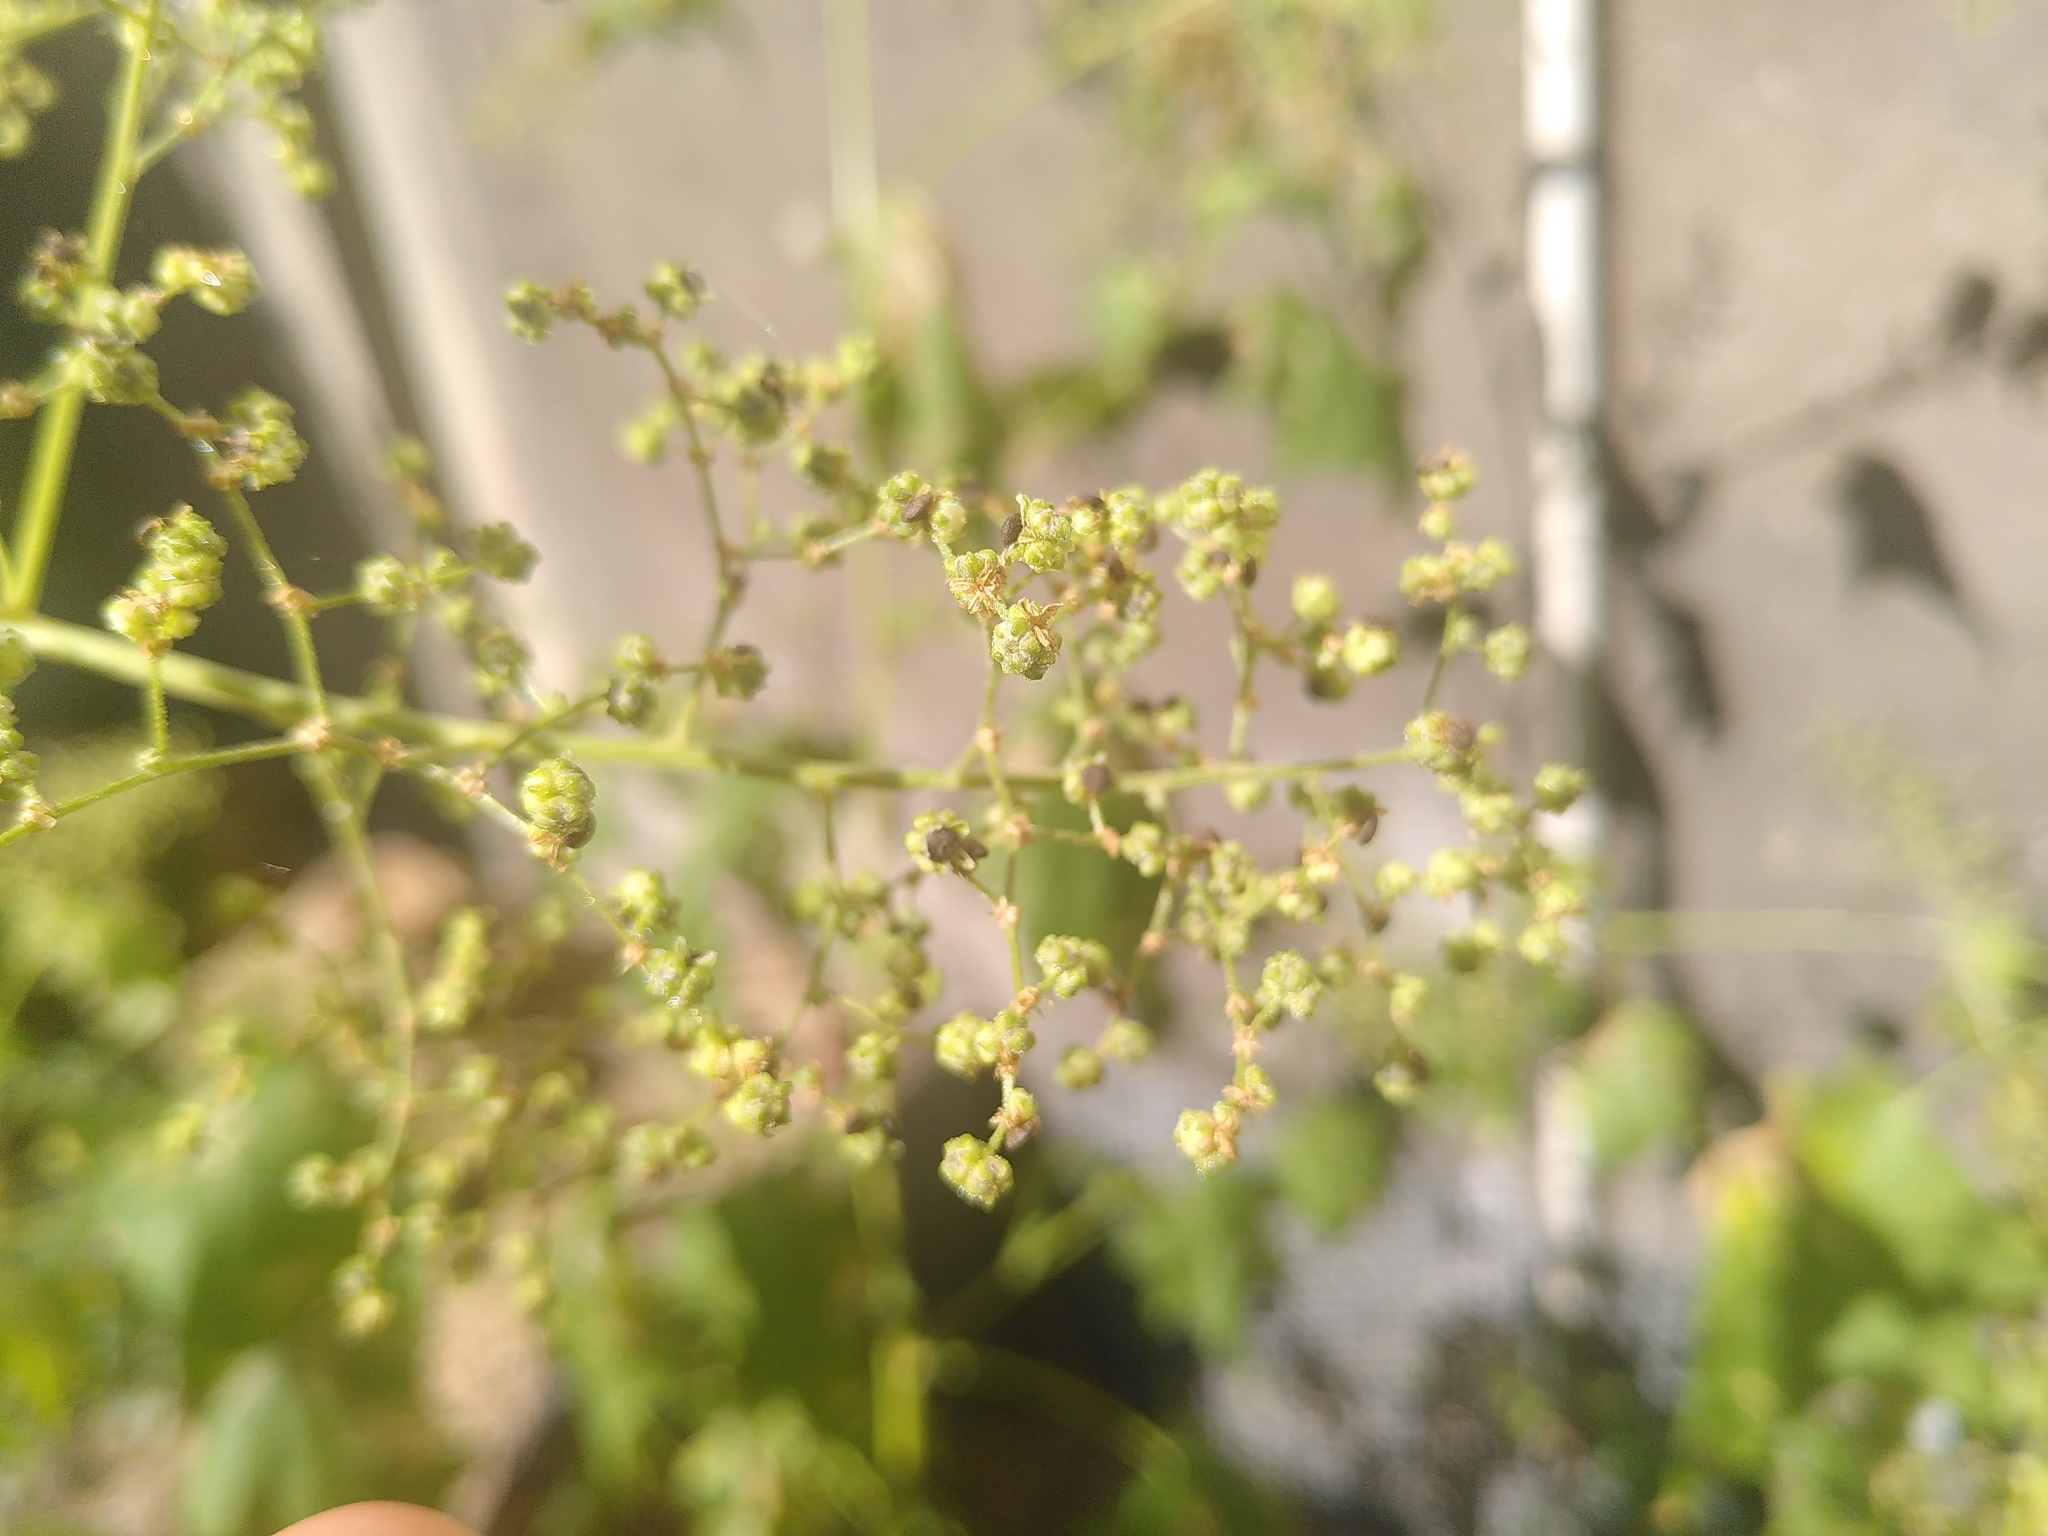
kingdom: Plantae
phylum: Tracheophyta
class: Magnoliopsida
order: Caryophyllales
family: Amaranthaceae
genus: Chenopodiastrum
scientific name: Chenopodiastrum hybridum
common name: Mapleleaf goosefoot
